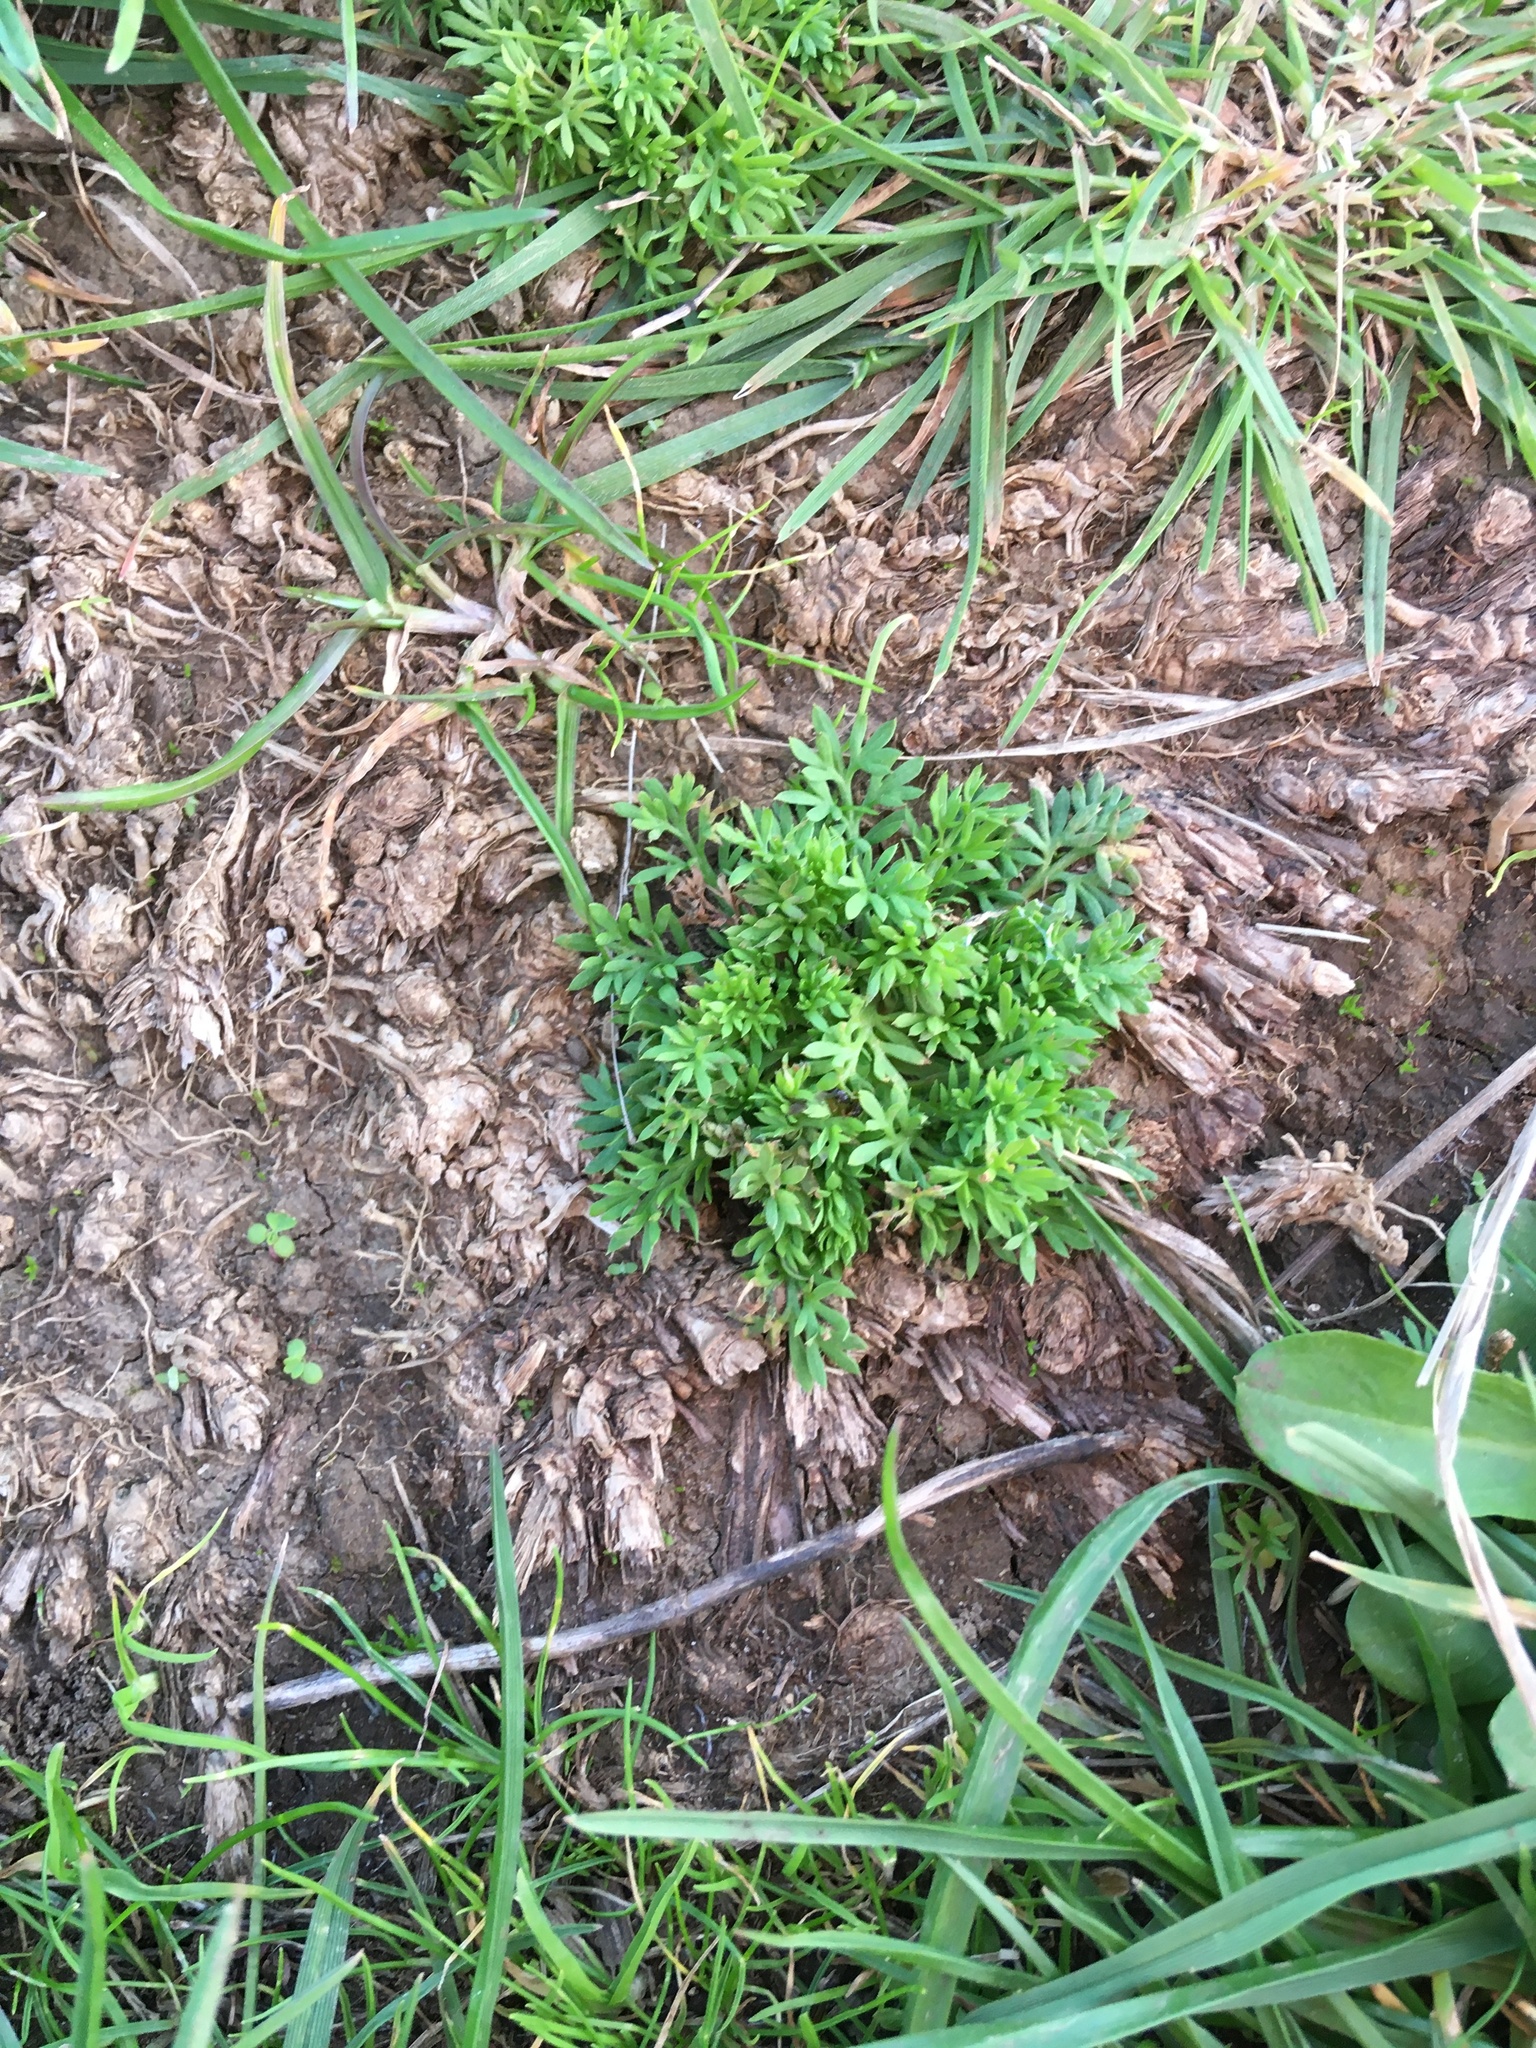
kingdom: Plantae
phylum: Tracheophyta
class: Magnoliopsida
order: Asterales
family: Asteraceae
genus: Soliva
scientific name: Soliva sessilis
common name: Field burrweed
